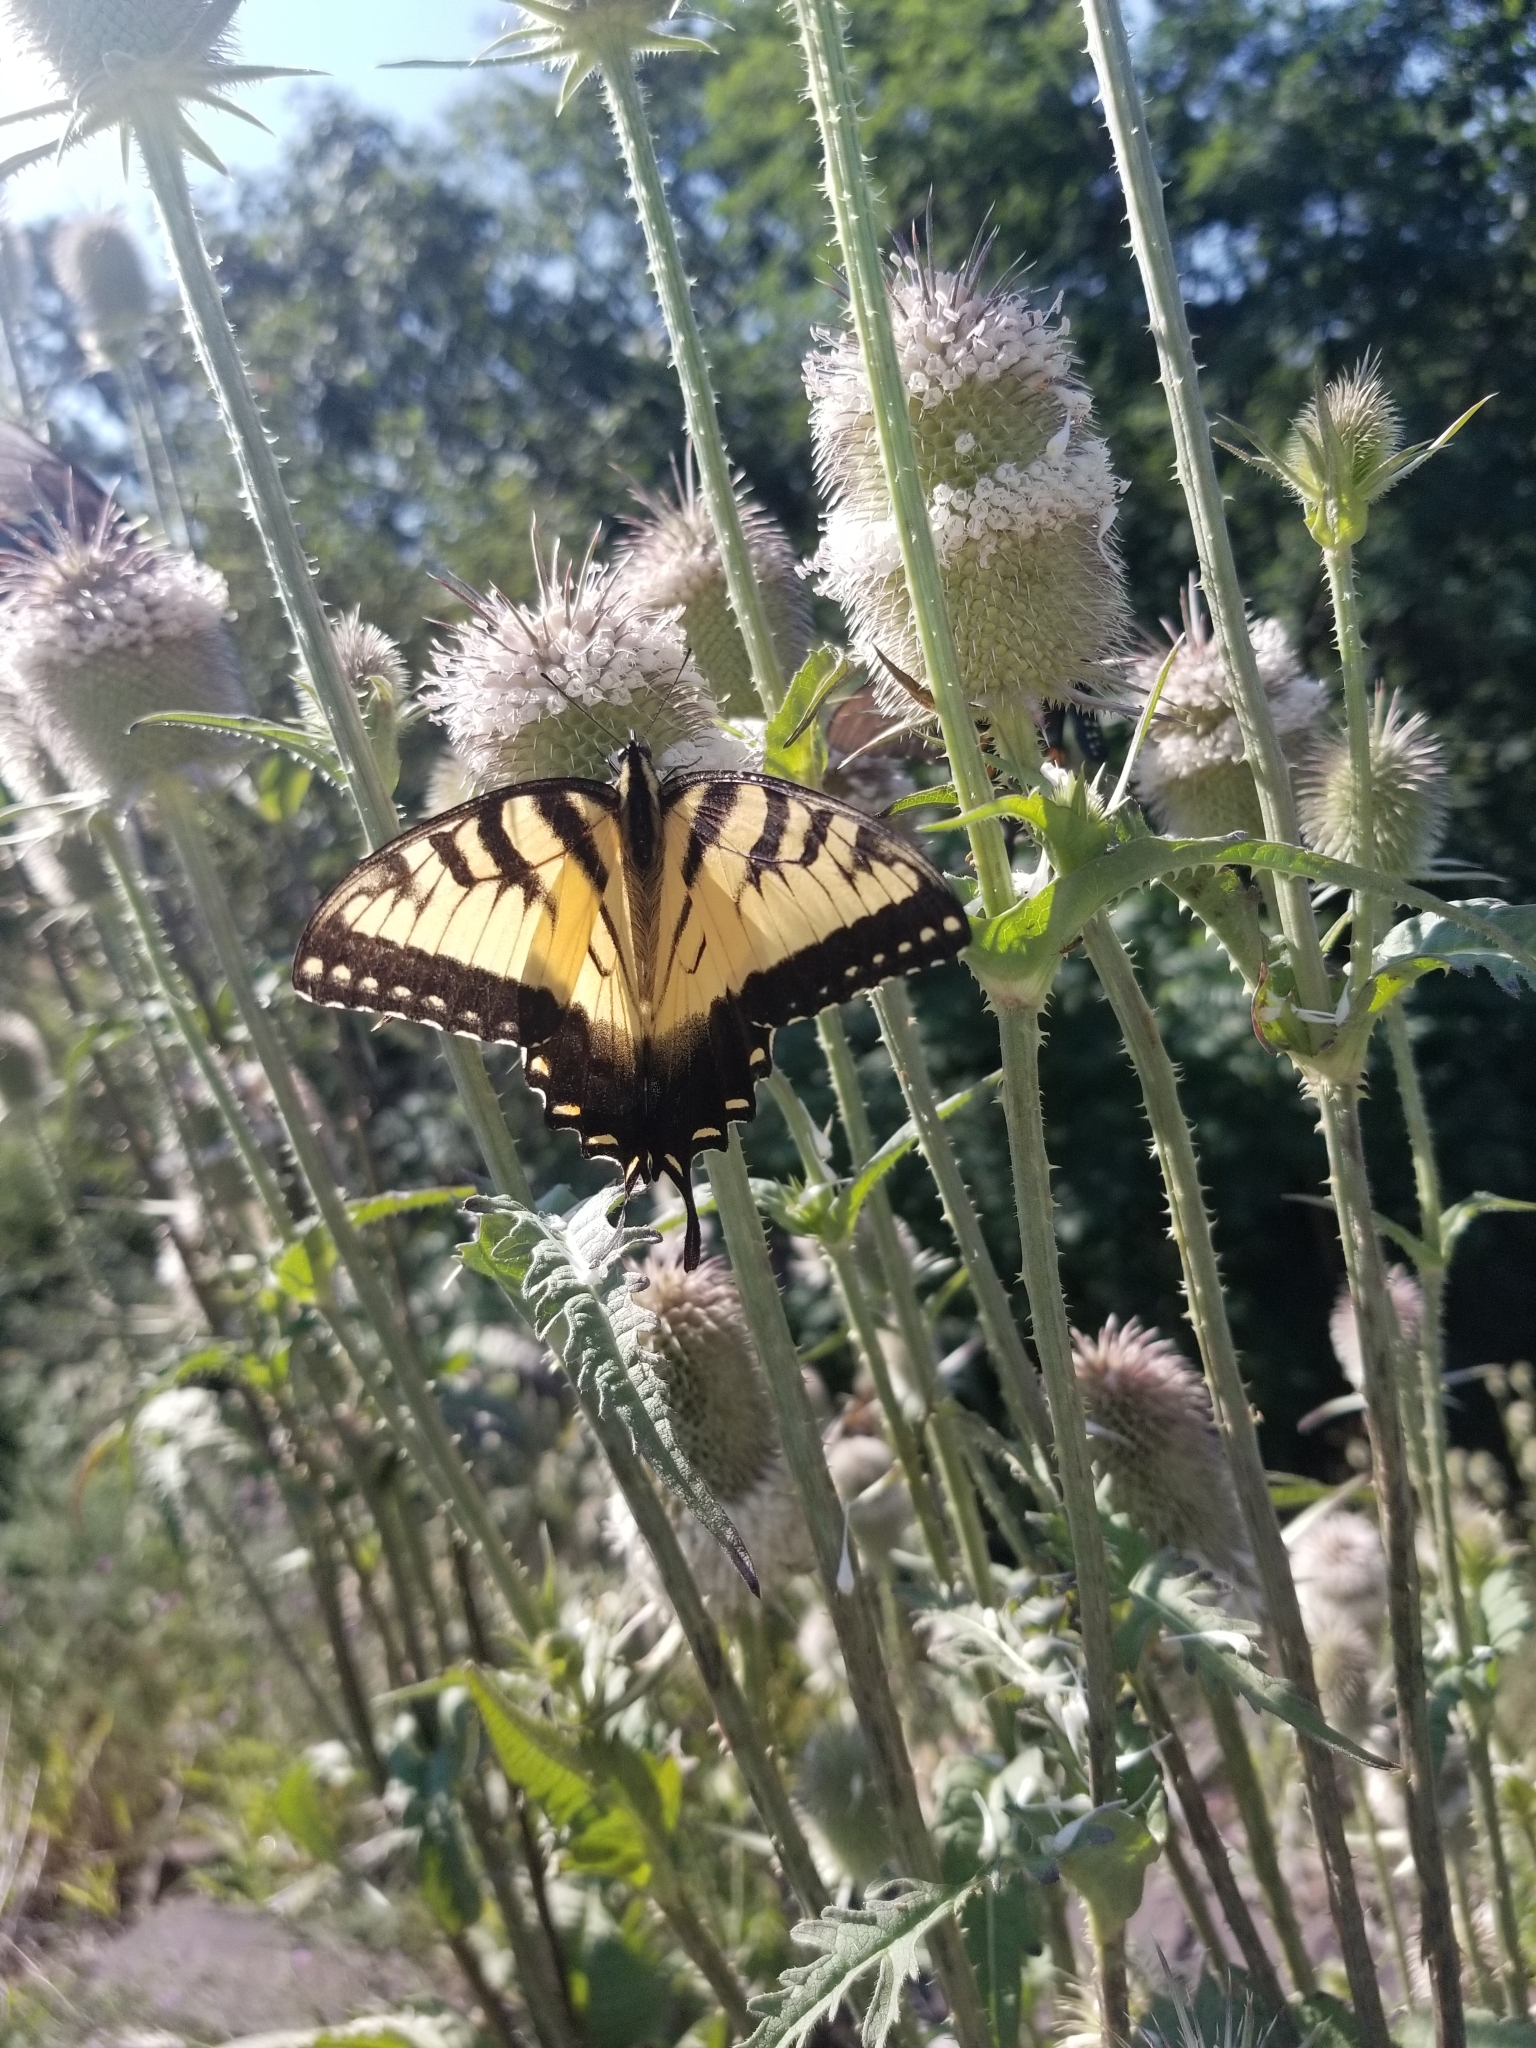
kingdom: Animalia
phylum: Arthropoda
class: Insecta
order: Lepidoptera
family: Papilionidae
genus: Papilio
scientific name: Papilio glaucus
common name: Tiger swallowtail
